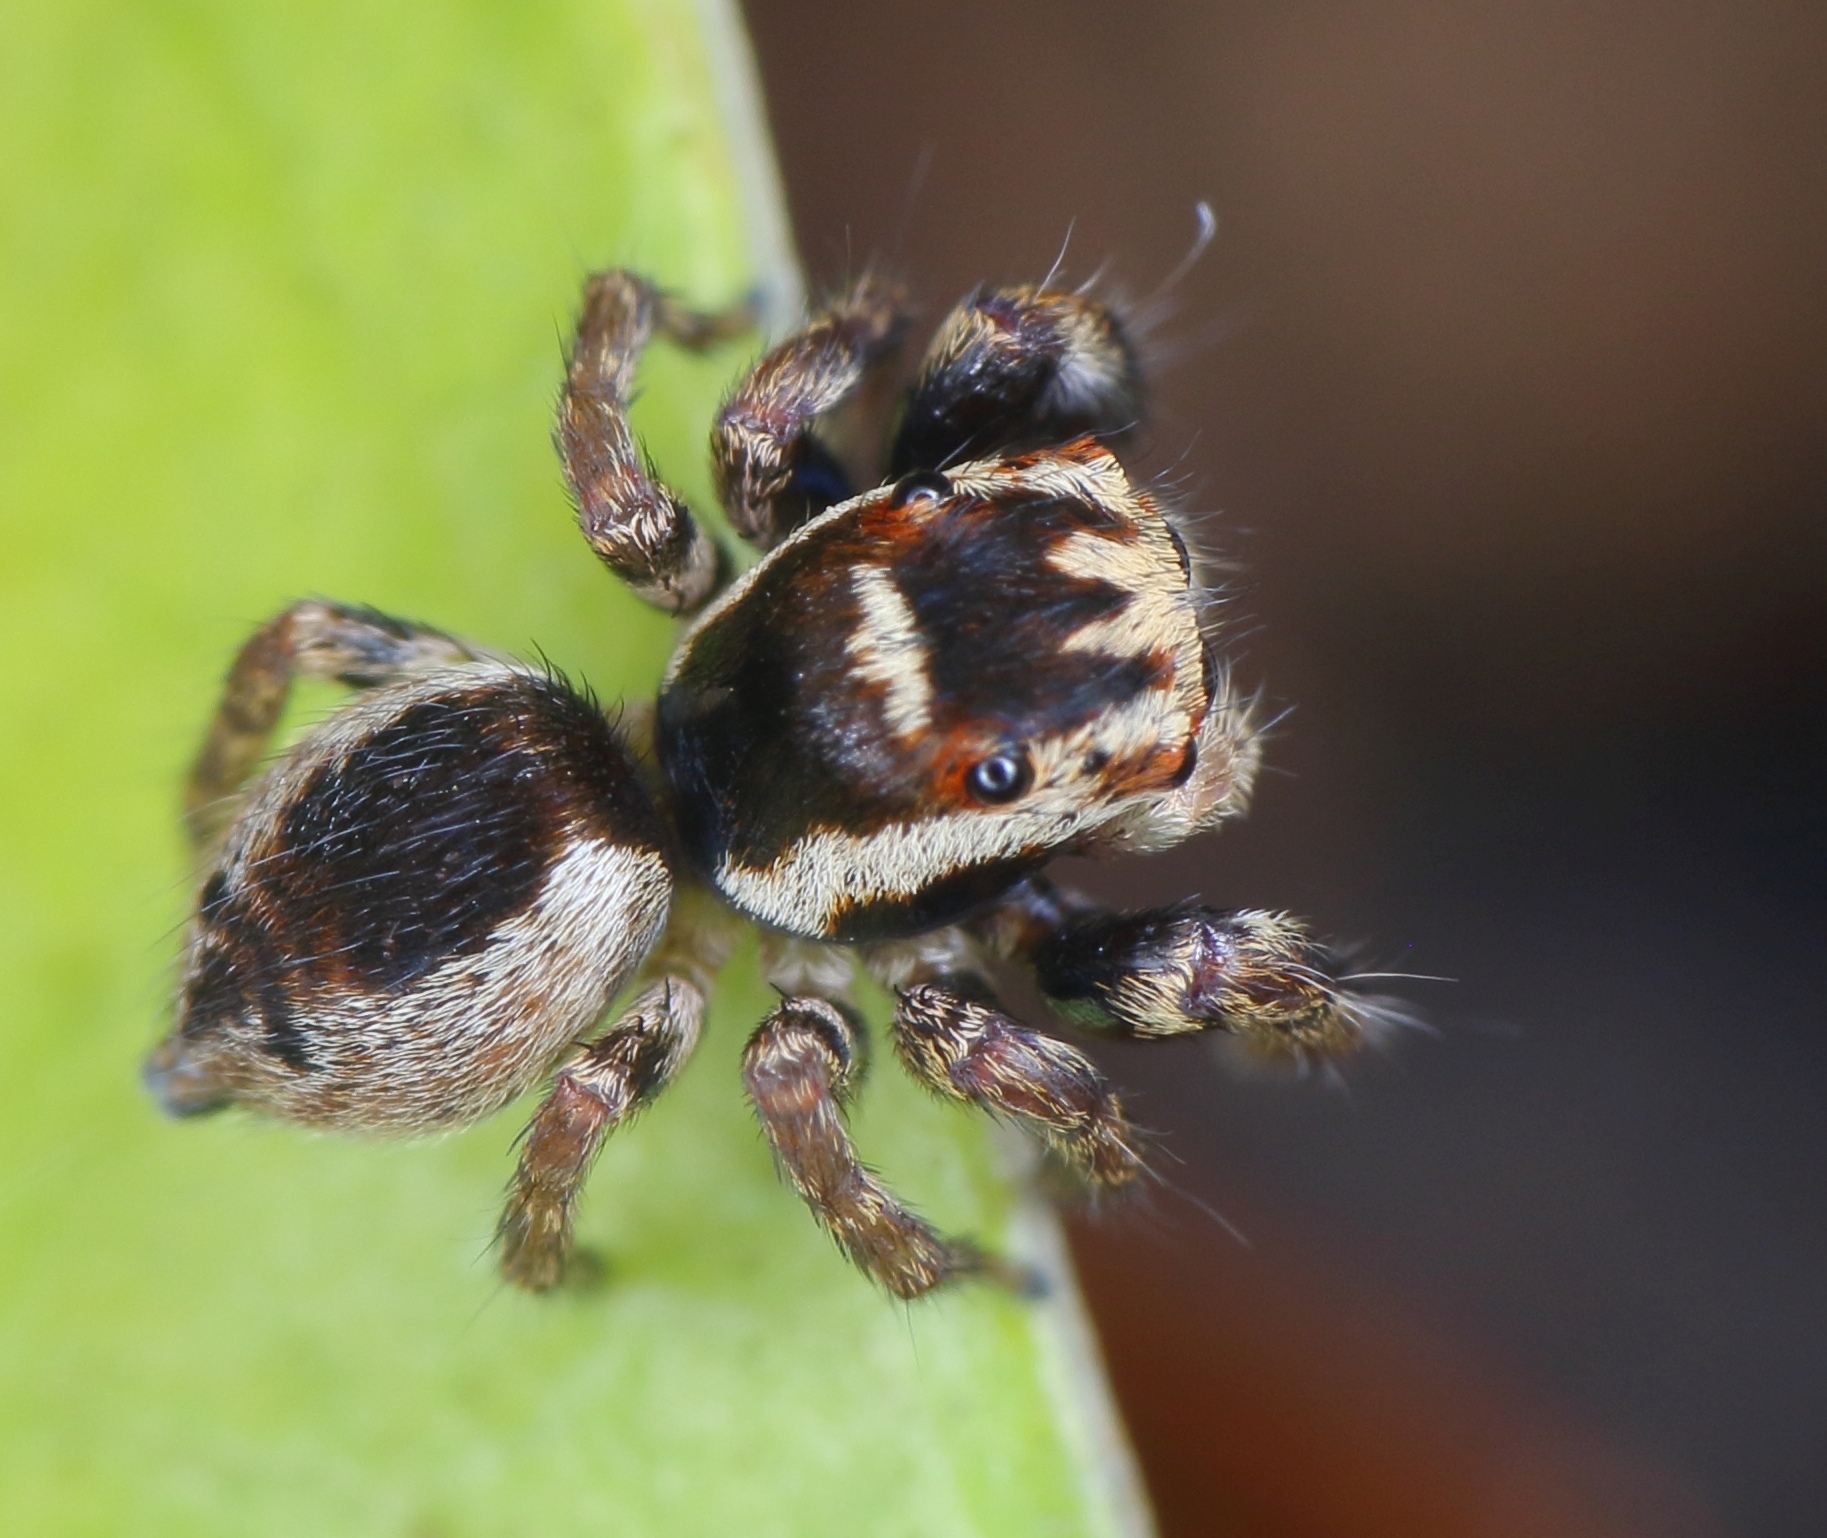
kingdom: Animalia
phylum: Arthropoda
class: Arachnida
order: Araneae
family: Salticidae
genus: Thyenula
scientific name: Thyenula haddadi
